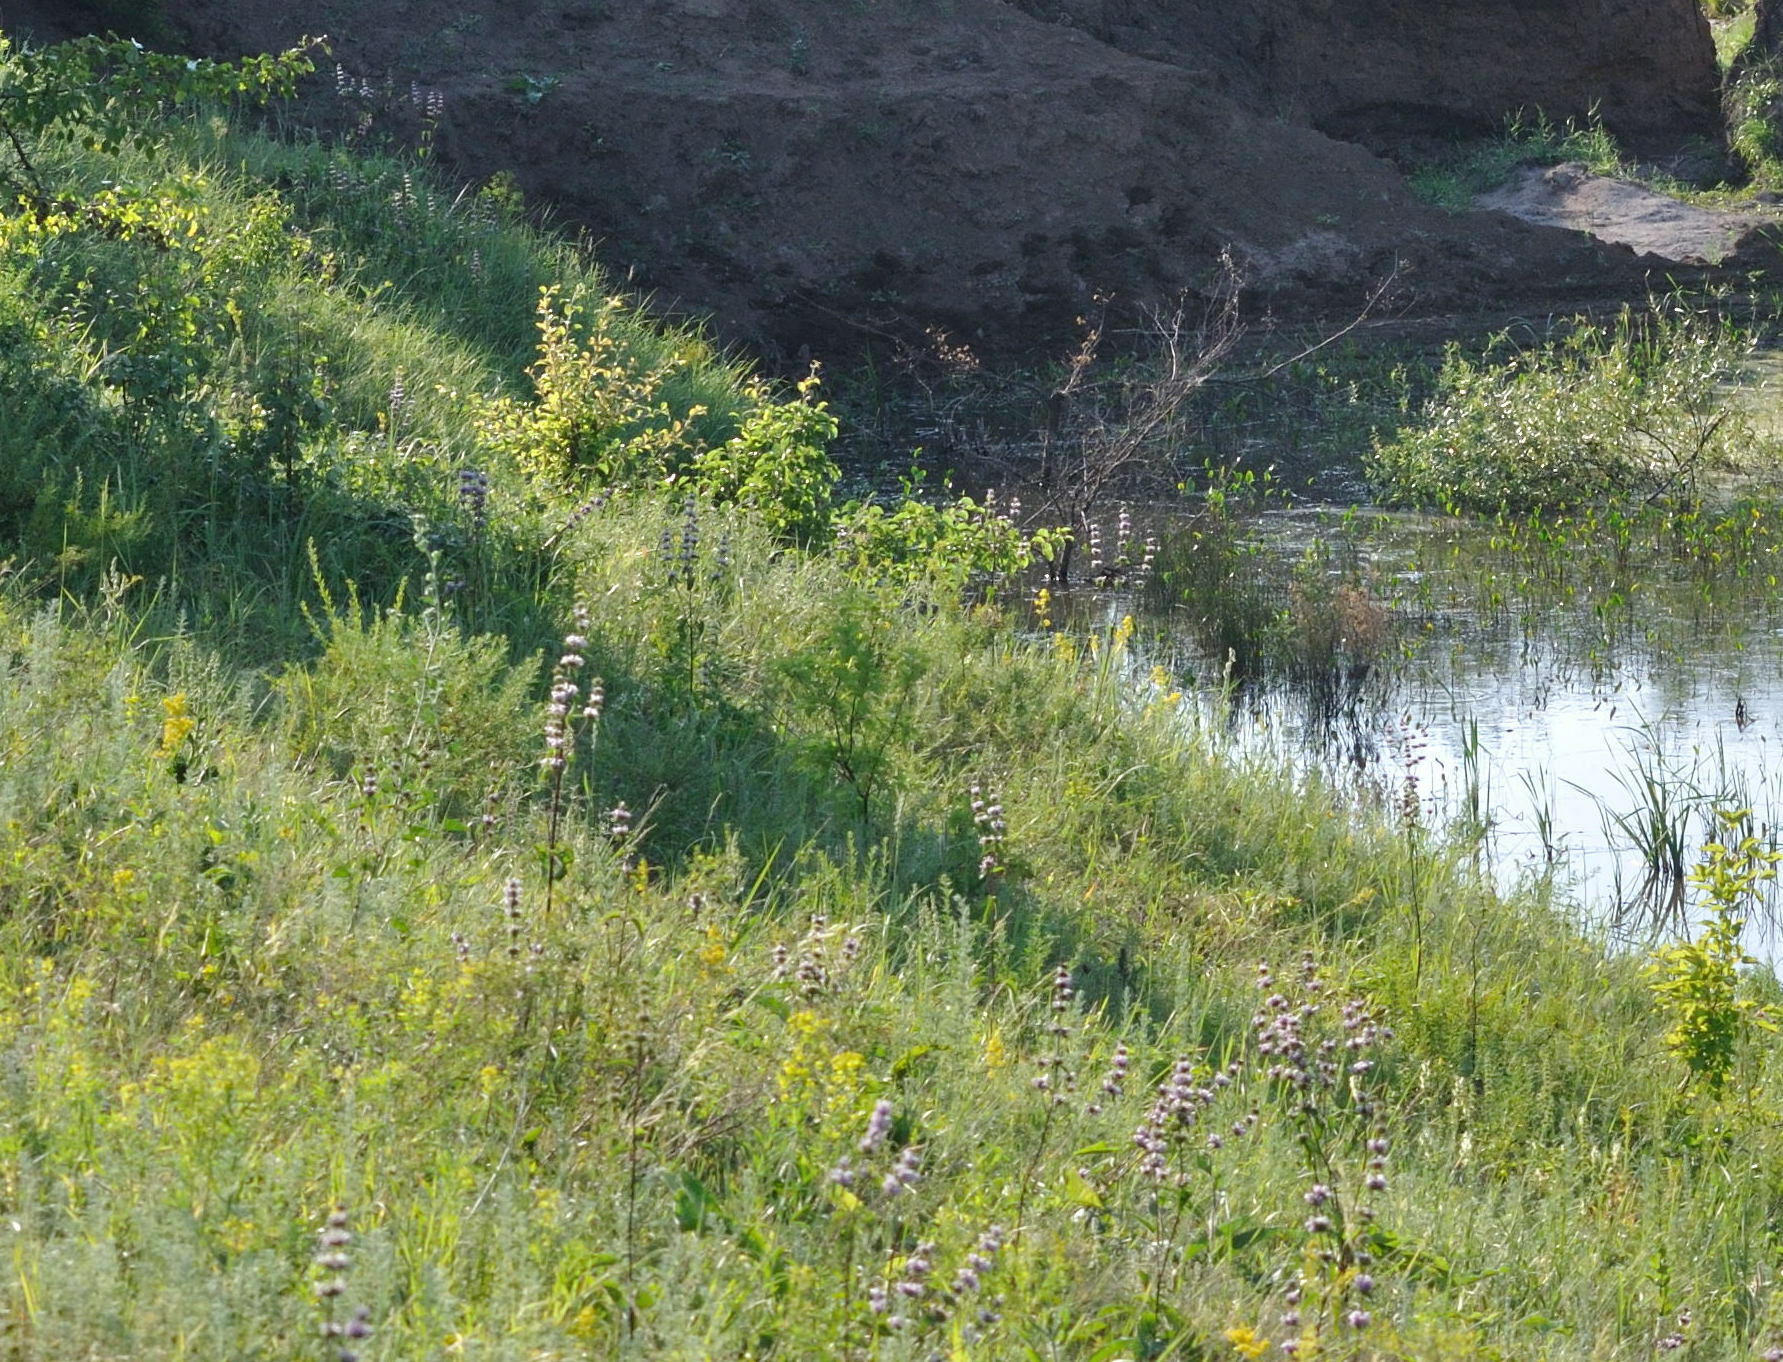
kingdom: Plantae
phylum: Tracheophyta
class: Magnoliopsida
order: Lamiales
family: Lamiaceae
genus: Phlomoides
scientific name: Phlomoides tuberosa
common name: Tuberous jerusalem sage
